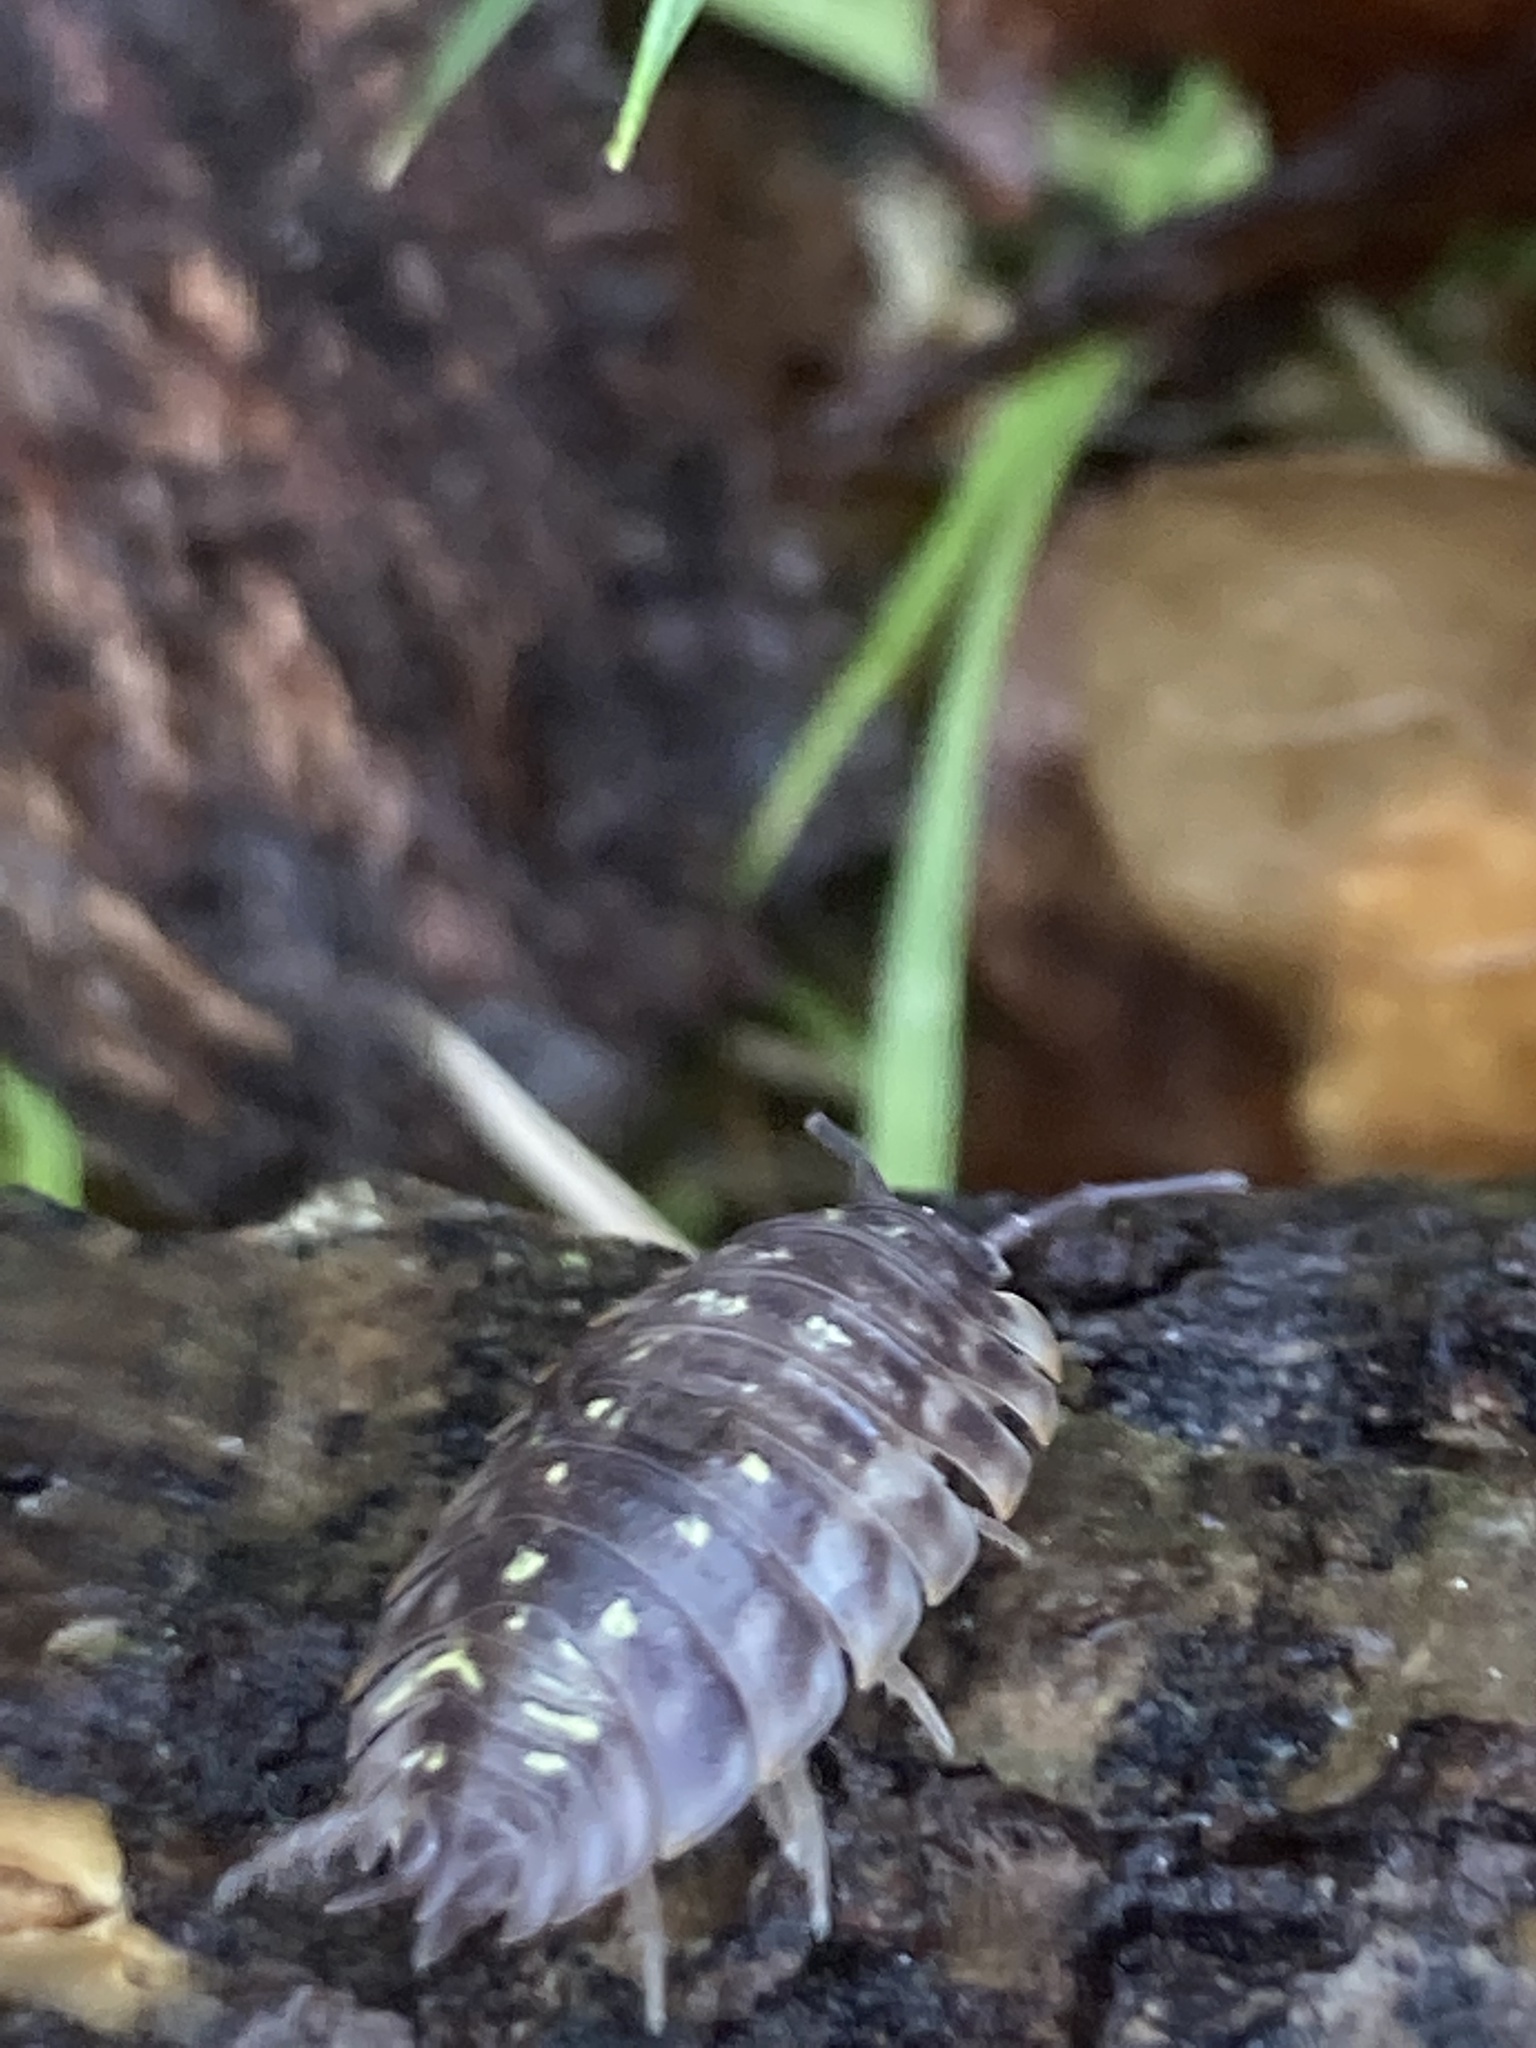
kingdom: Animalia
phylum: Arthropoda
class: Malacostraca
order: Isopoda
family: Oniscidae
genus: Oniscus
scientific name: Oniscus asellus
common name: Common shiny woodlouse
